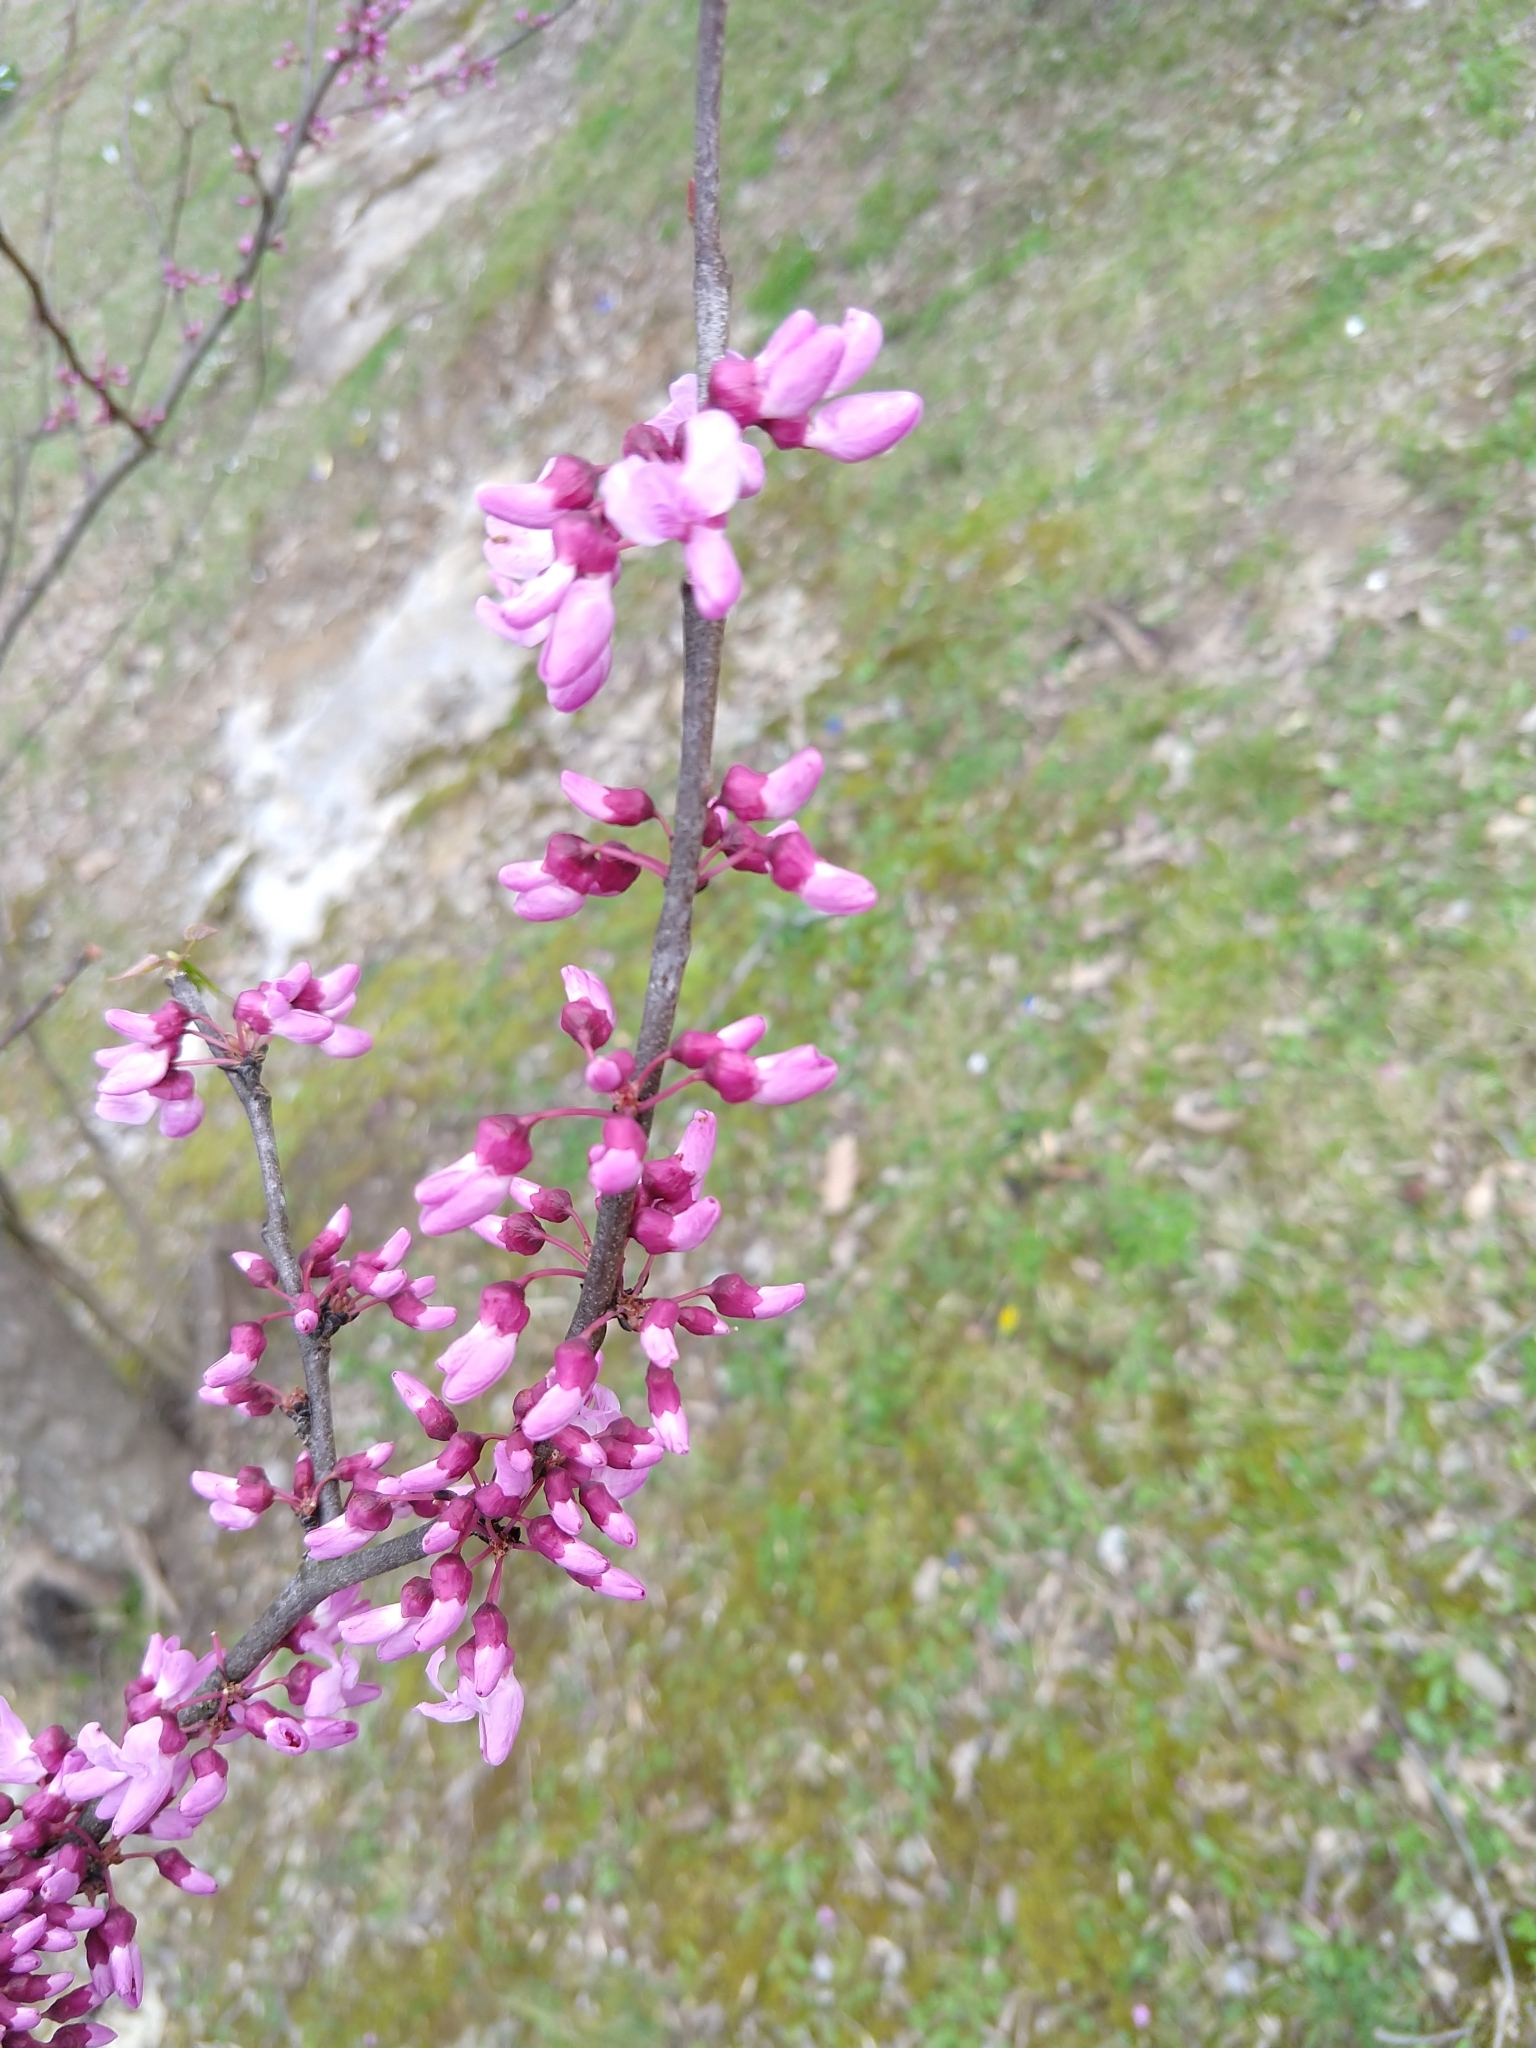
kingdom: Plantae
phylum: Tracheophyta
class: Magnoliopsida
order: Fabales
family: Fabaceae
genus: Cercis
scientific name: Cercis canadensis
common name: Eastern redbud
